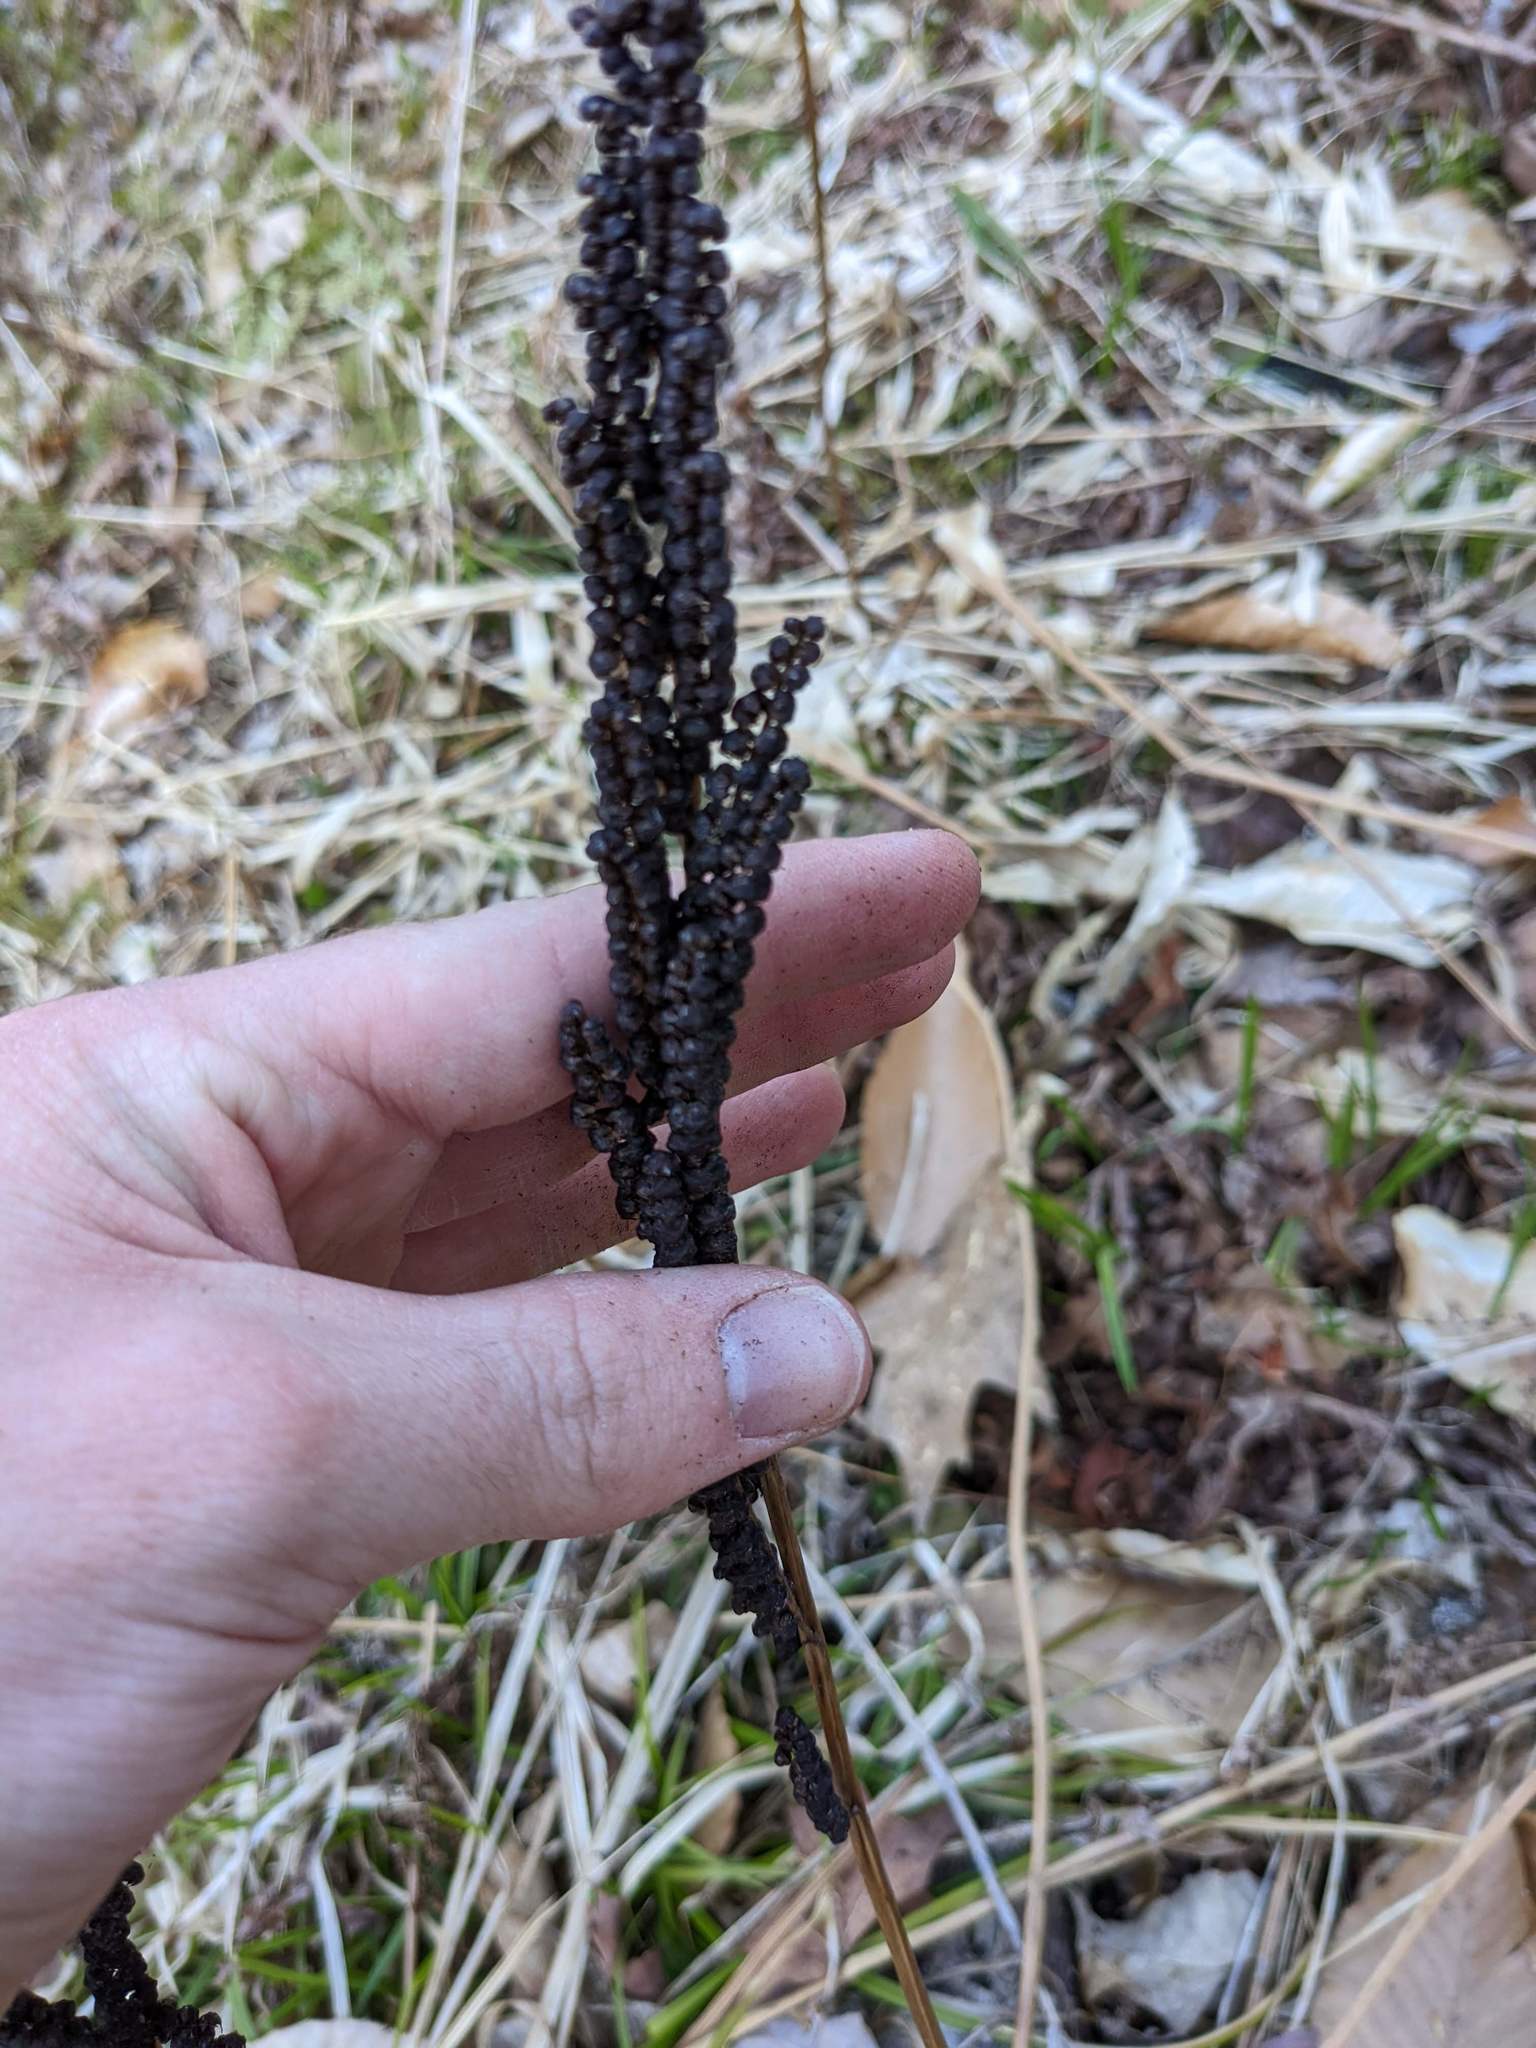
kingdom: Plantae
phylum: Tracheophyta
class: Polypodiopsida
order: Polypodiales
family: Onocleaceae
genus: Onoclea
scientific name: Onoclea sensibilis
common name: Sensitive fern
